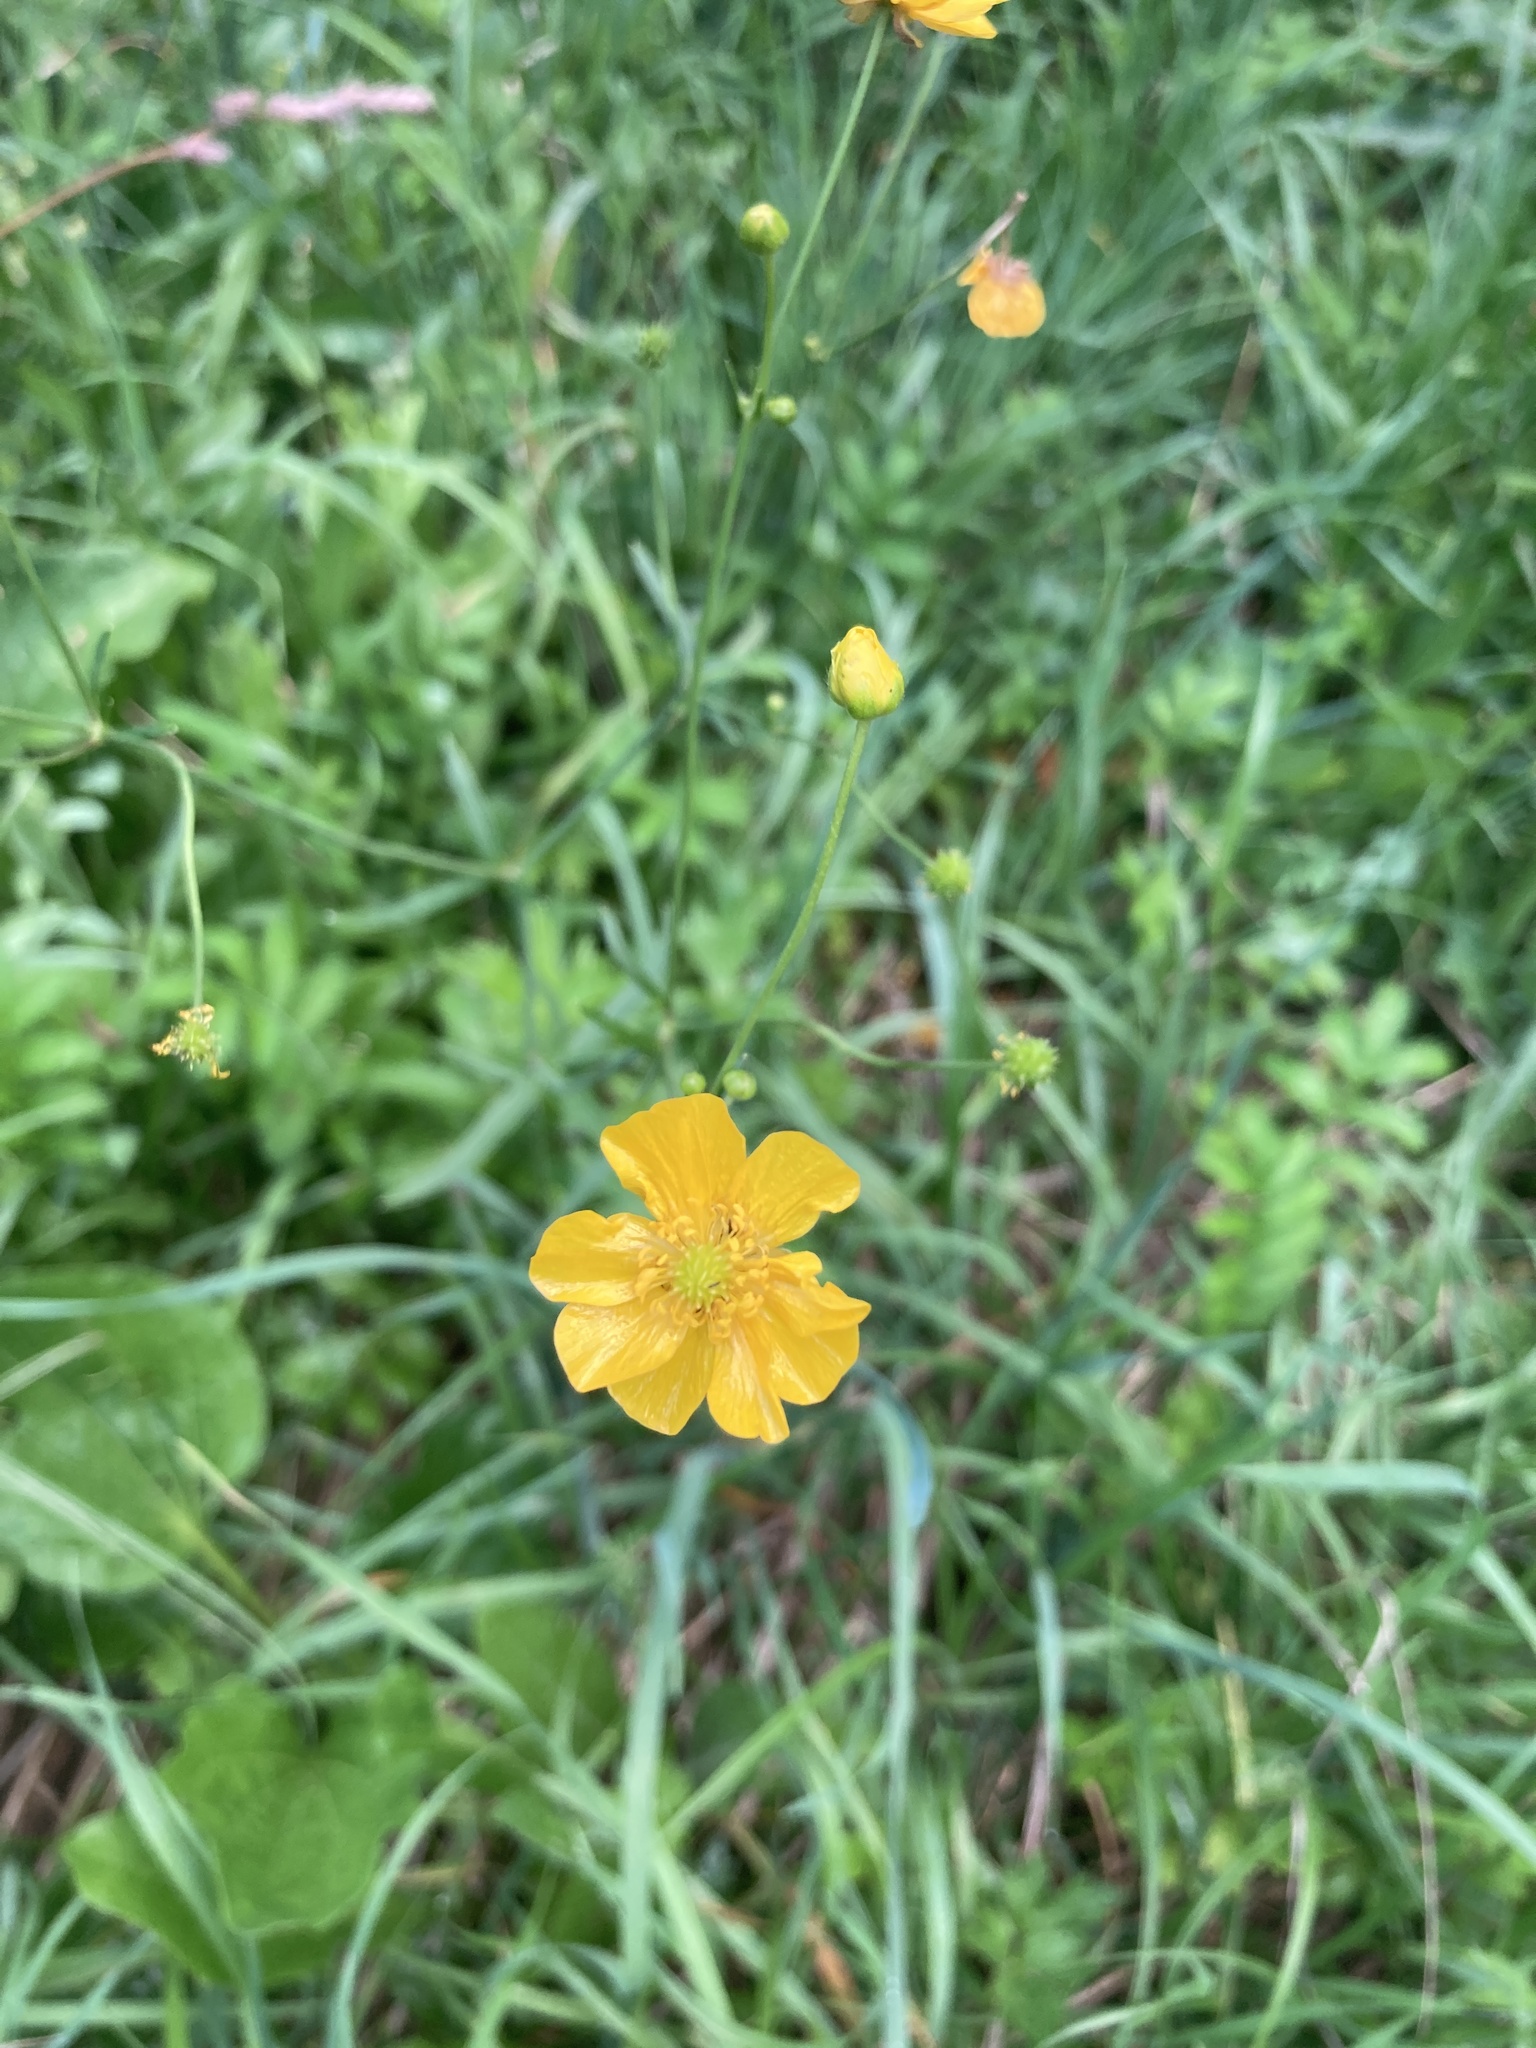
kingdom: Plantae
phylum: Tracheophyta
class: Magnoliopsida
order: Ranunculales
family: Ranunculaceae
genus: Ranunculus
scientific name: Ranunculus acris
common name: Meadow buttercup
